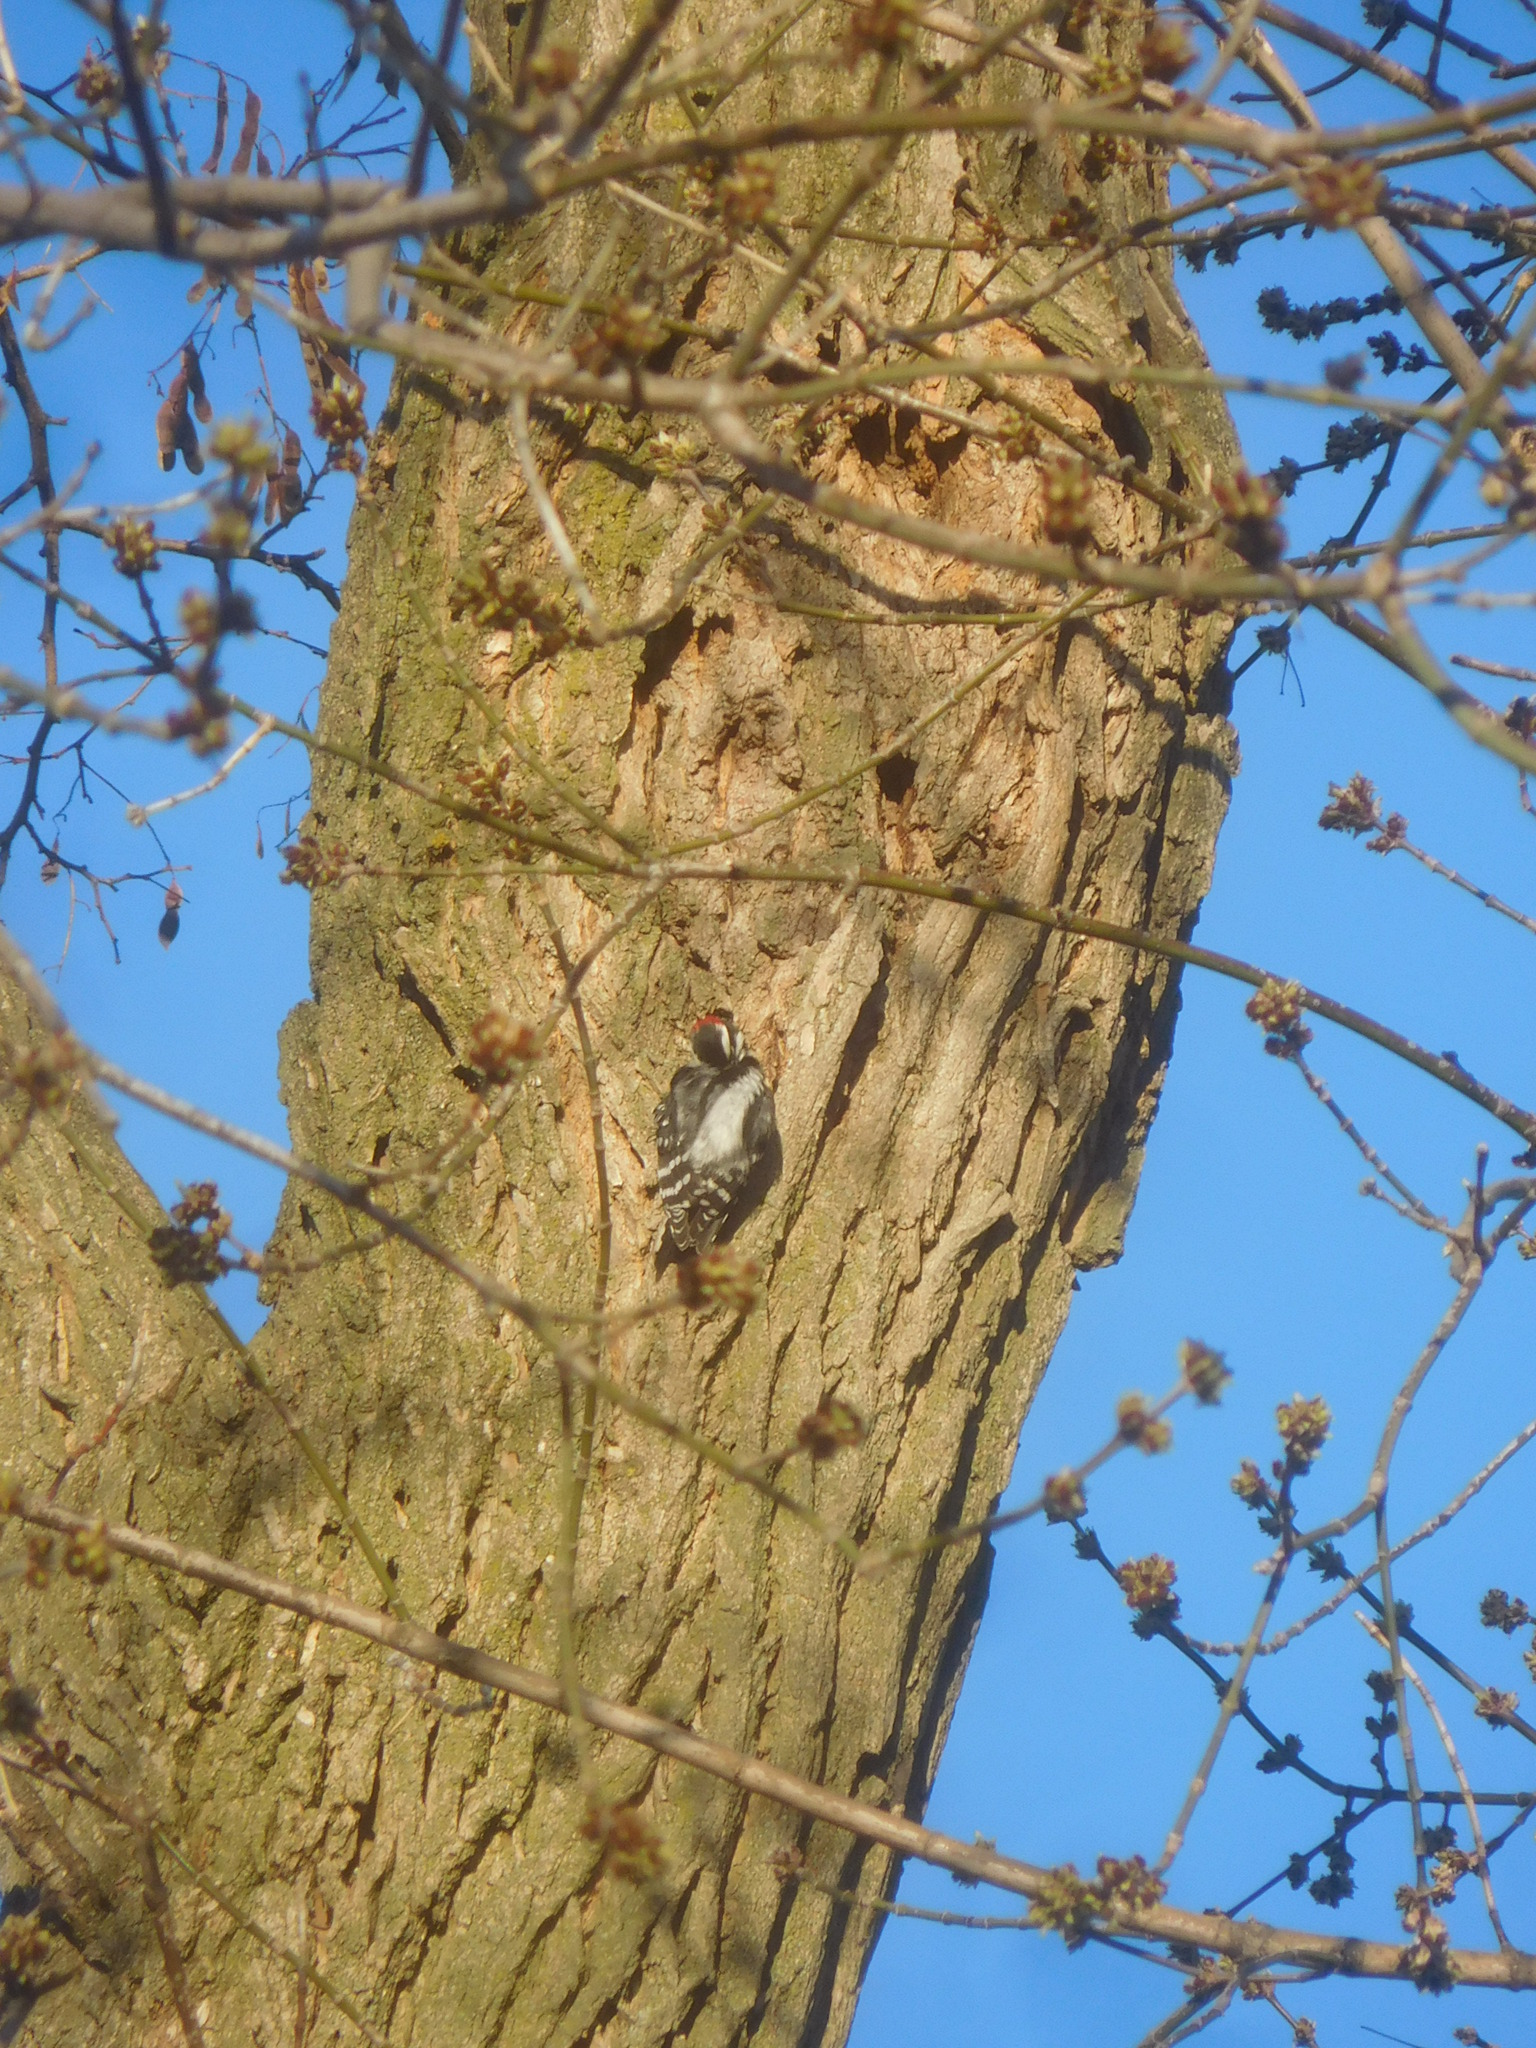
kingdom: Animalia
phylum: Chordata
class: Aves
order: Piciformes
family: Picidae
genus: Dryobates
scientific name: Dryobates pubescens
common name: Downy woodpecker
